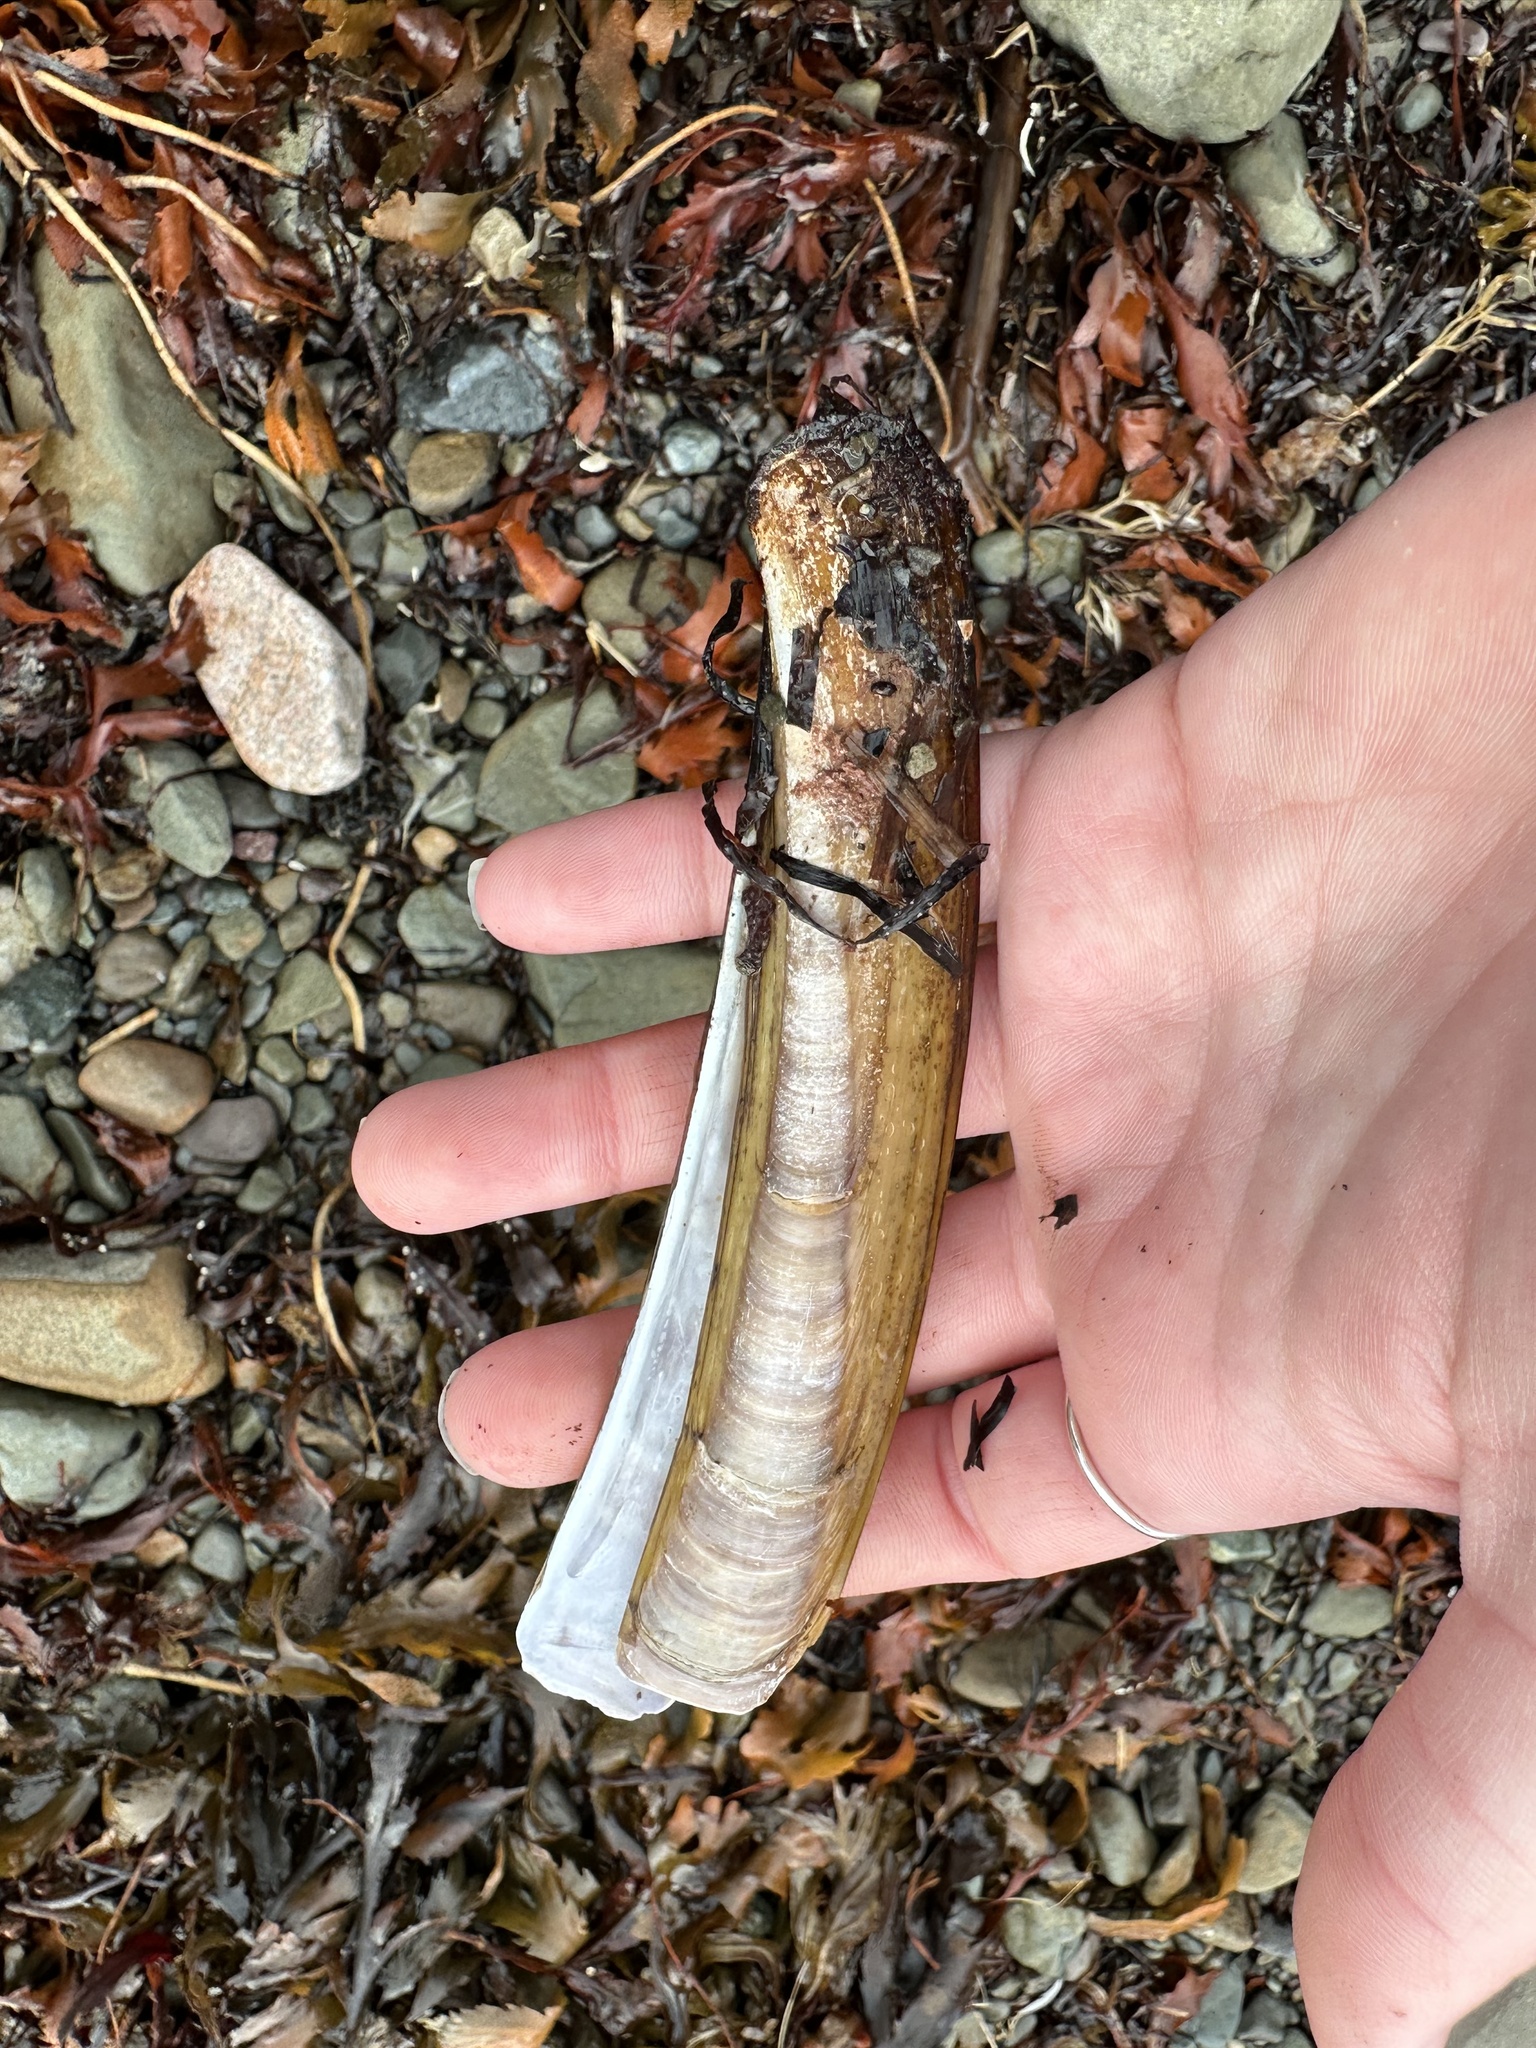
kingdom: Animalia
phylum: Mollusca
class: Bivalvia
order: Adapedonta
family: Pharidae
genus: Ensis
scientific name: Ensis leei
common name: American jack knife clam
